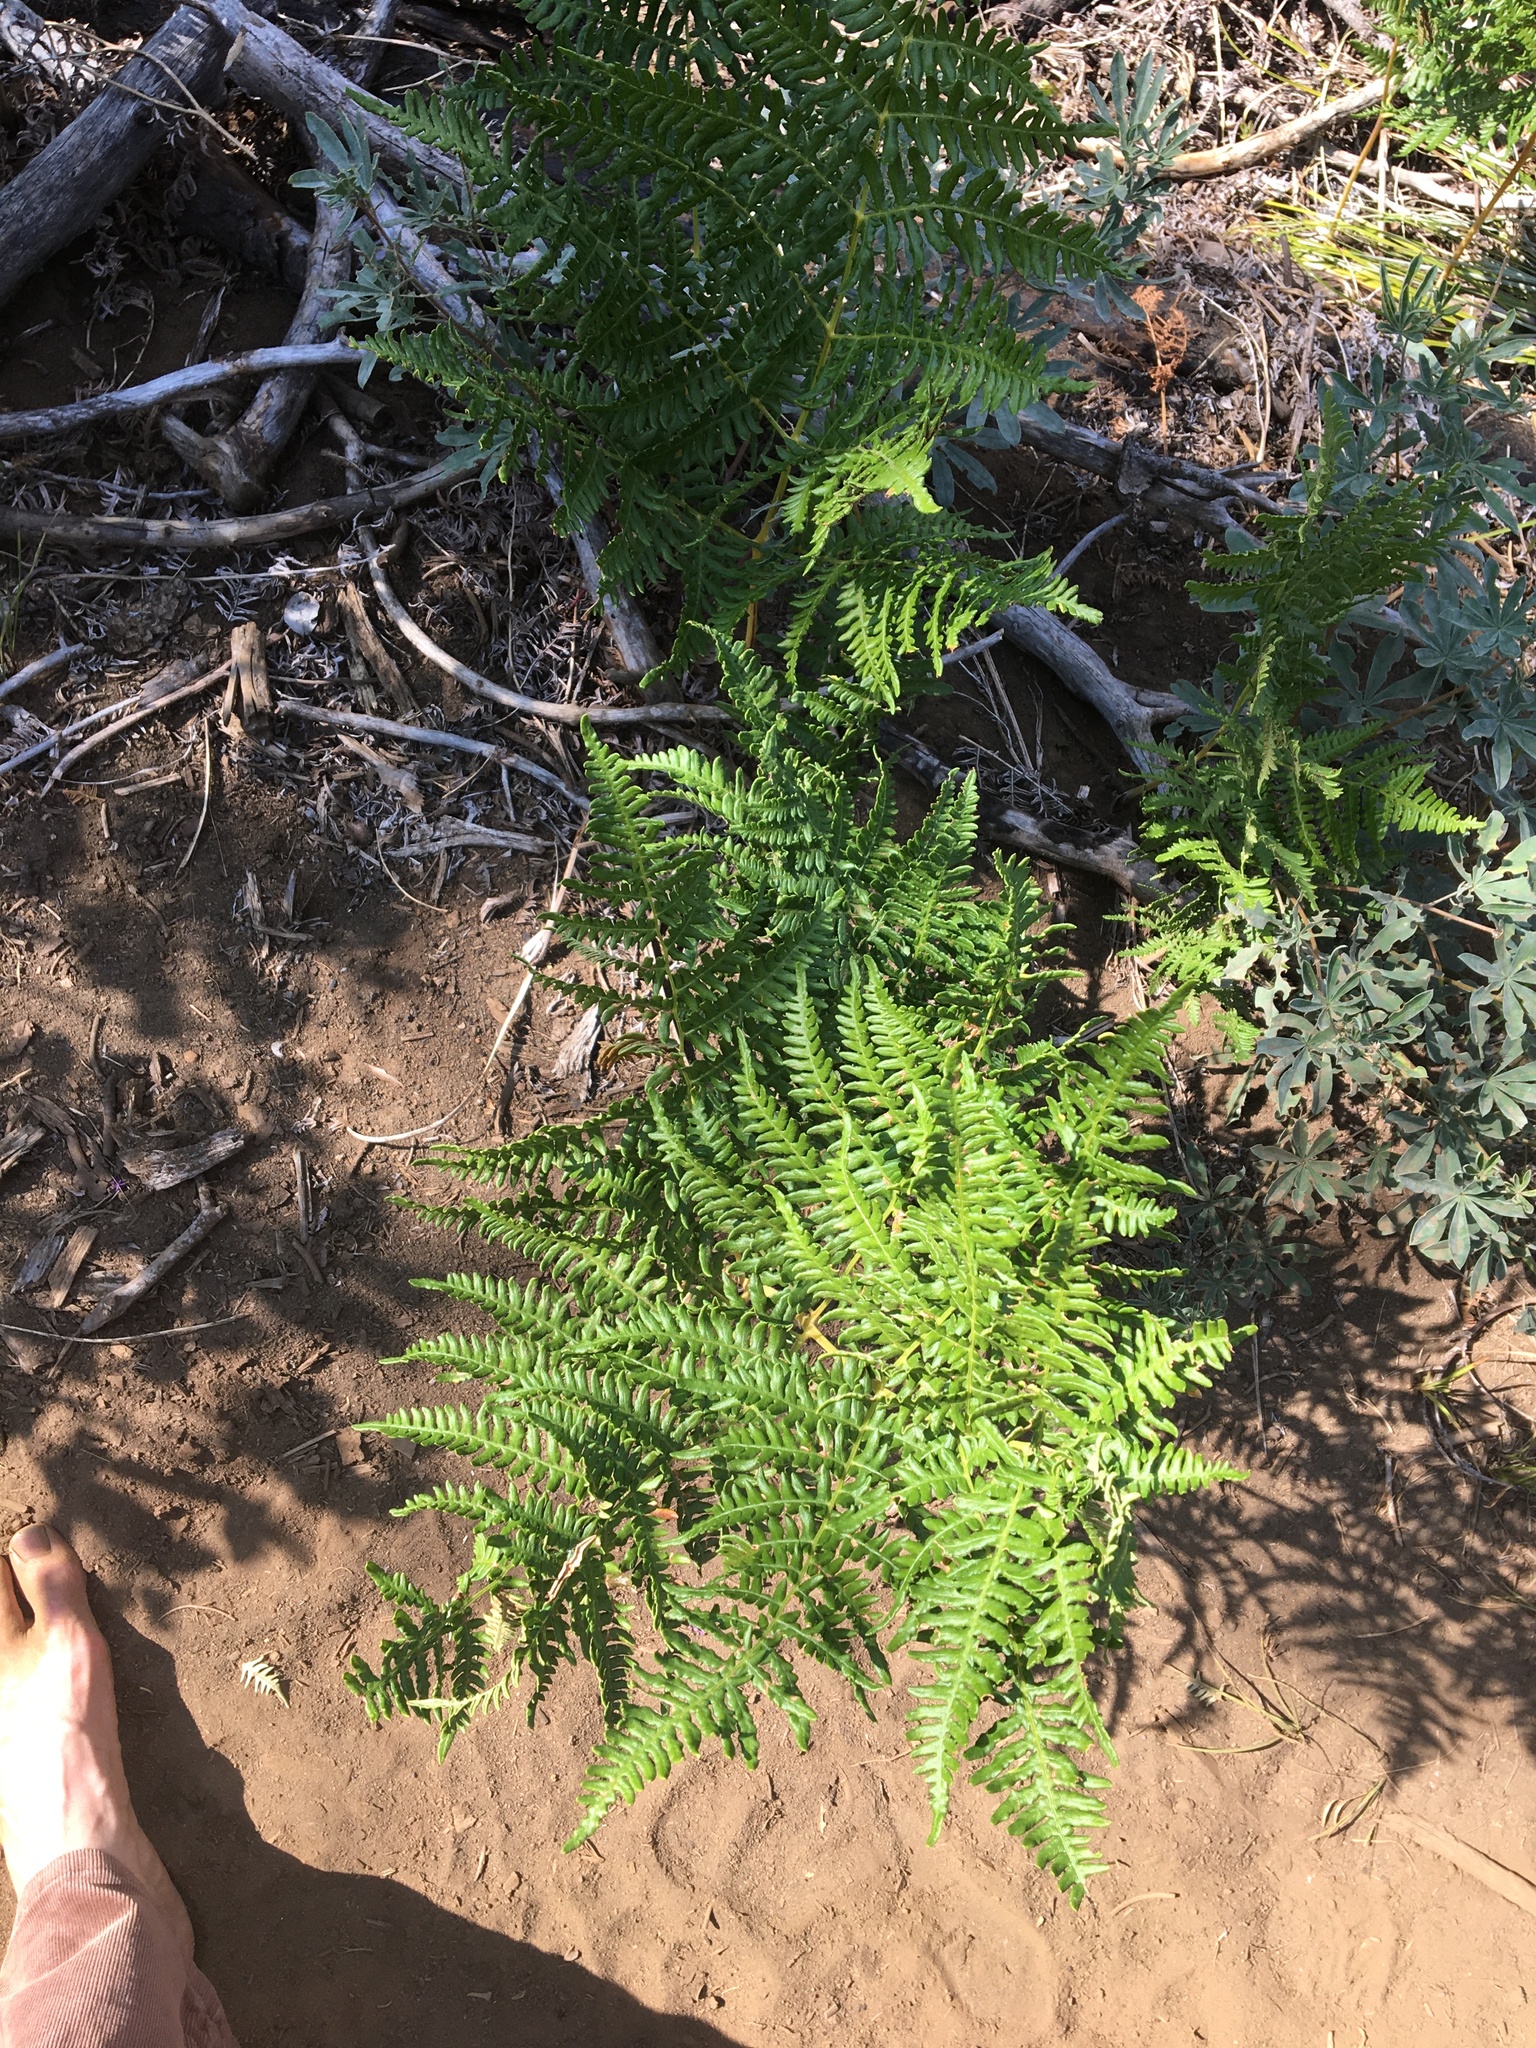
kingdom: Plantae
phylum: Tracheophyta
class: Polypodiopsida
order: Polypodiales
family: Dennstaedtiaceae
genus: Pteridium
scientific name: Pteridium aquilinum
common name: Bracken
